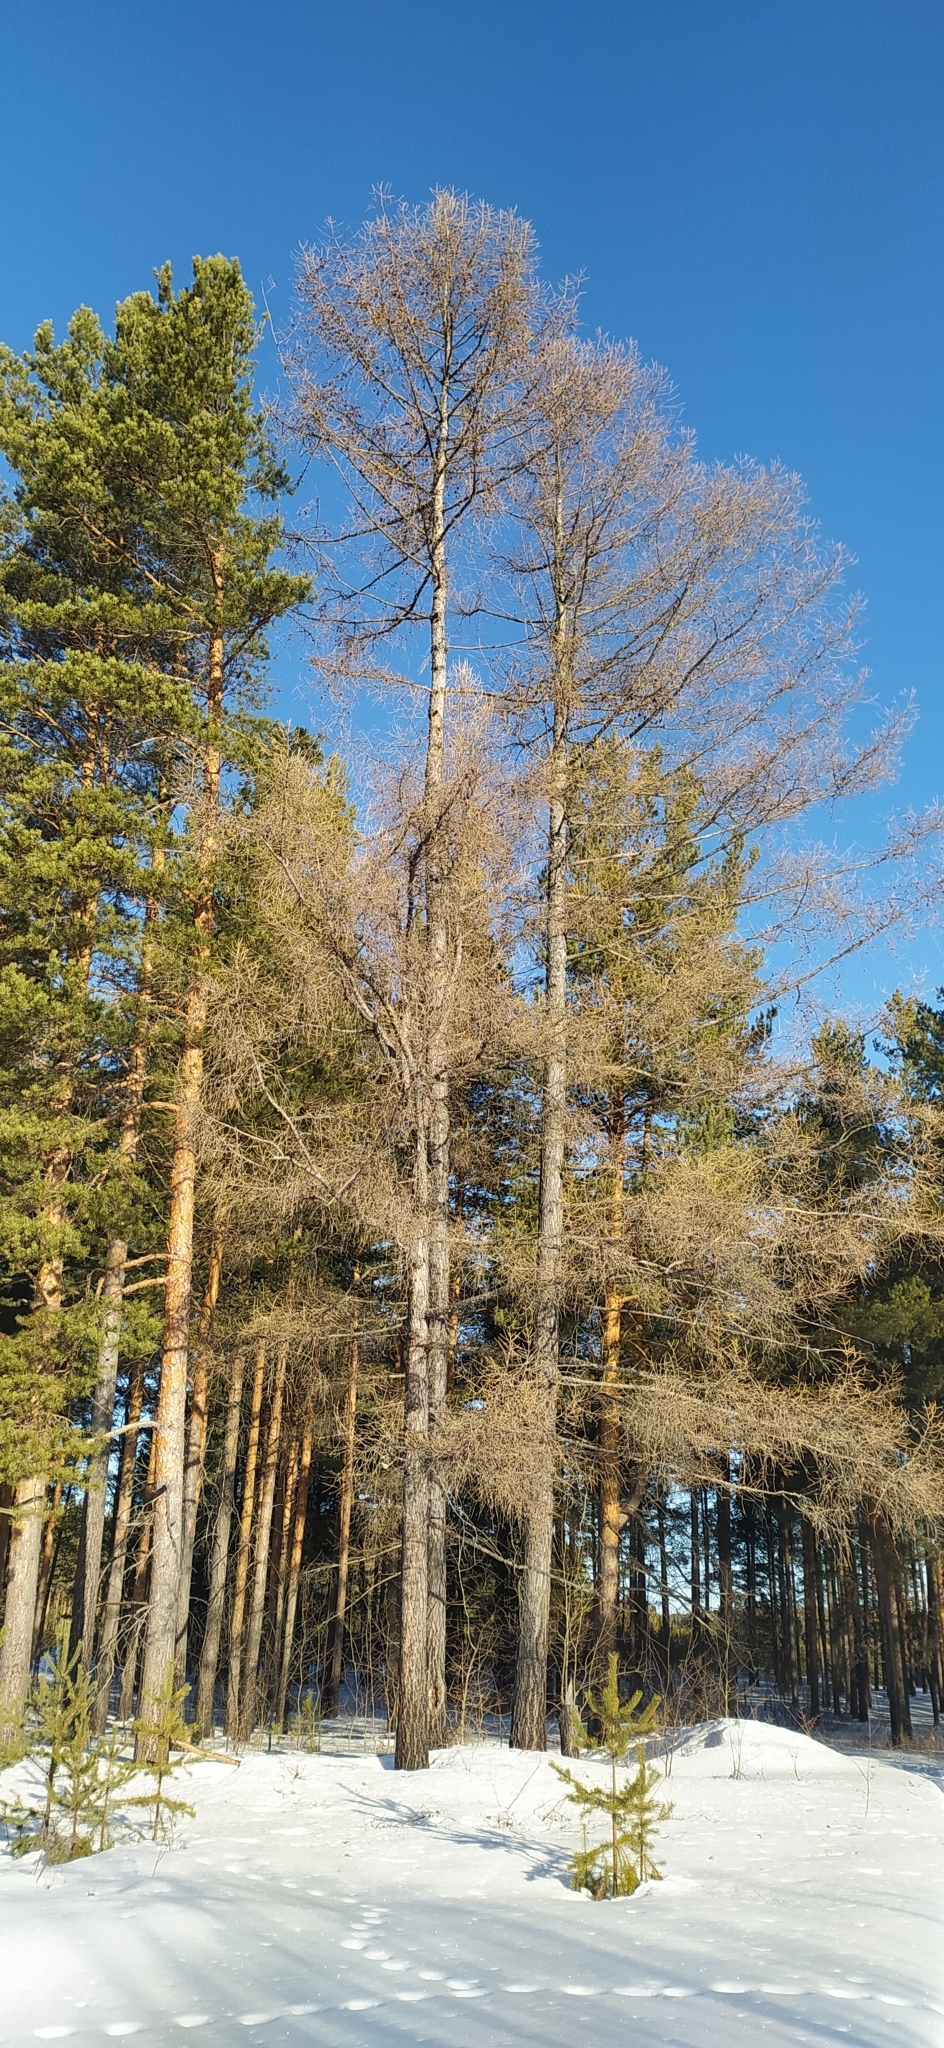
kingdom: Plantae
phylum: Tracheophyta
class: Pinopsida
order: Pinales
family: Pinaceae
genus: Larix
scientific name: Larix sibirica
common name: Siberian larch
